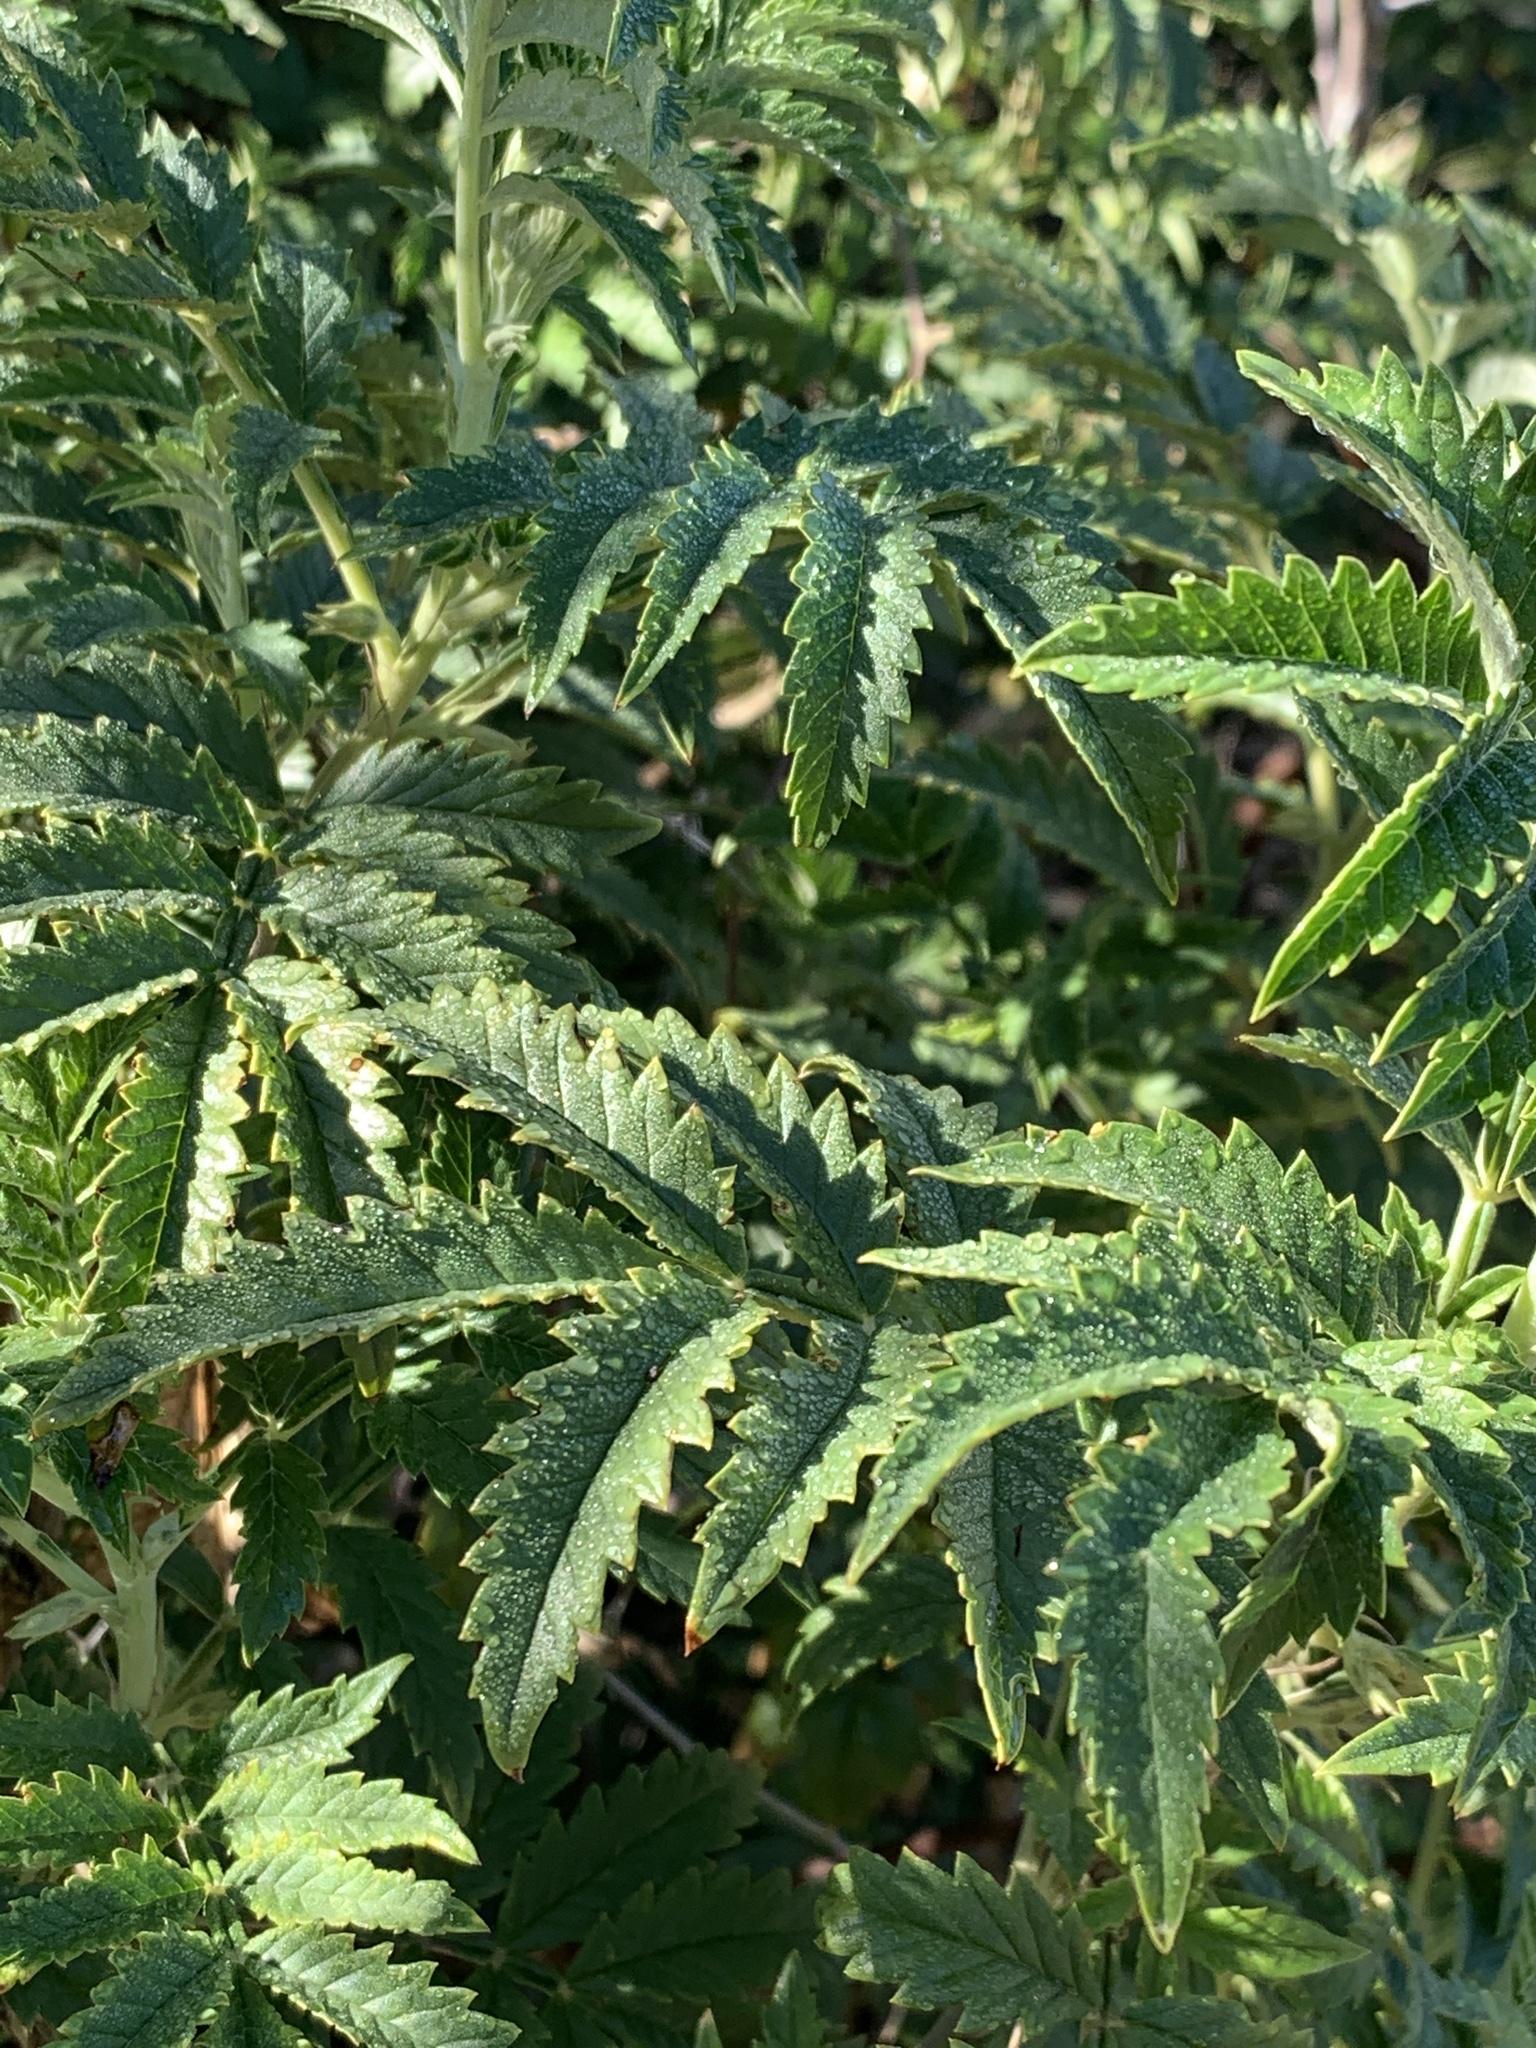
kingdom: Plantae
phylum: Tracheophyta
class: Magnoliopsida
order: Geraniales
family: Melianthaceae
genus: Melianthus
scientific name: Melianthus comosus
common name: Touch-me-not
